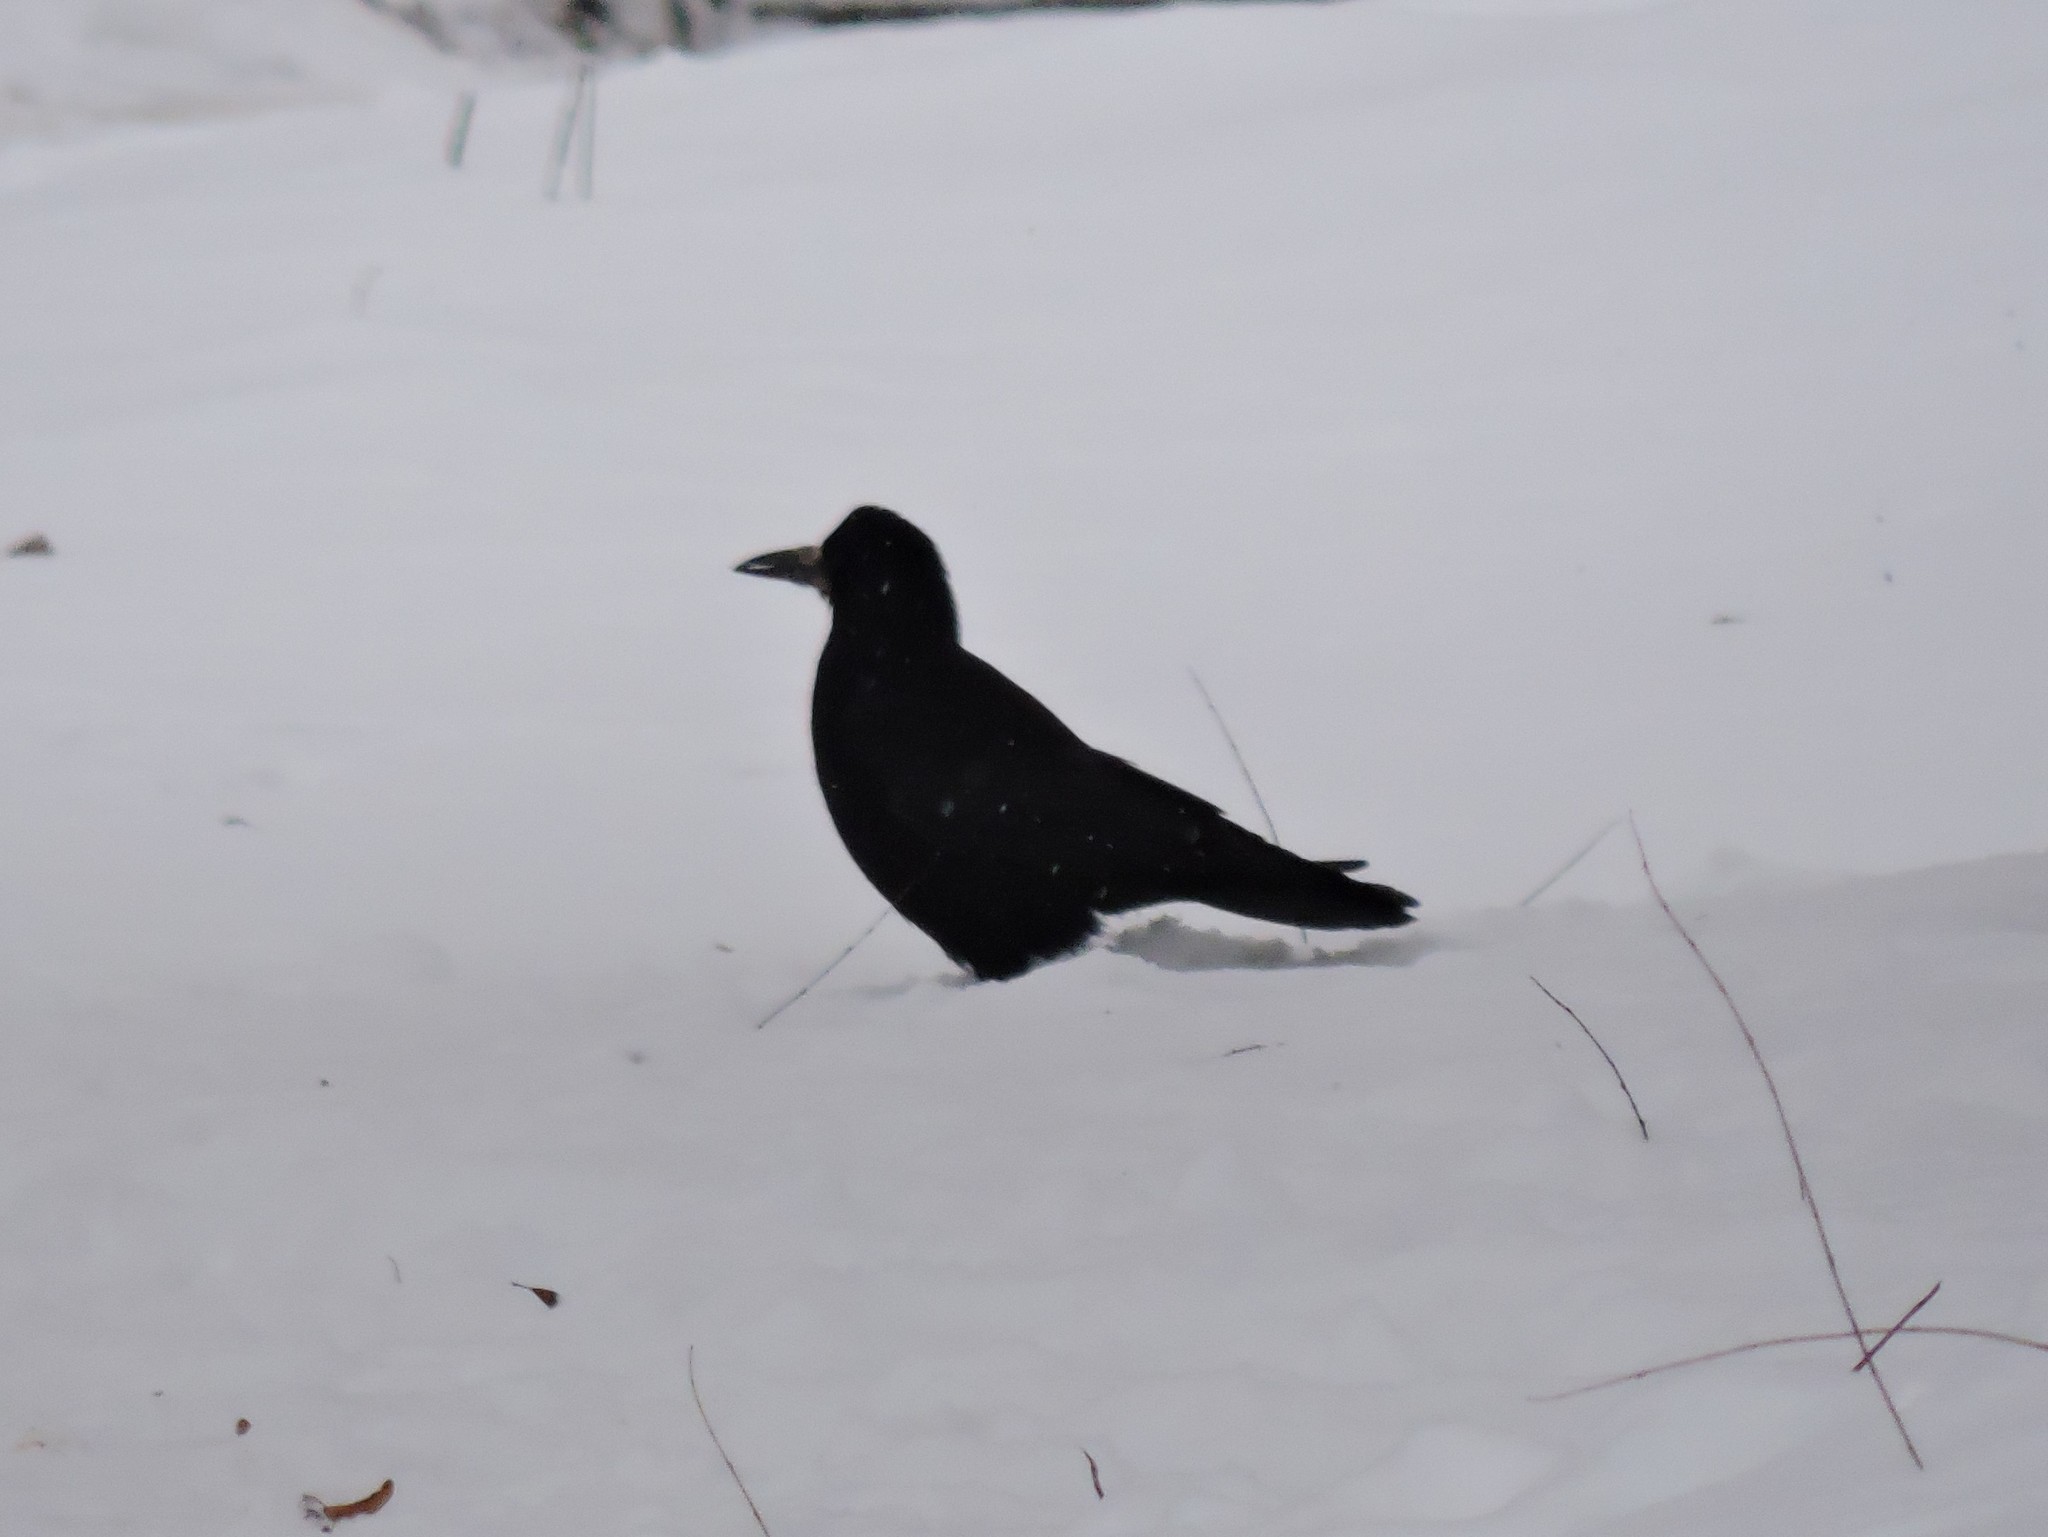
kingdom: Animalia
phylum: Chordata
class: Aves
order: Passeriformes
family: Corvidae
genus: Corvus
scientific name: Corvus frugilegus
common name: Rook
